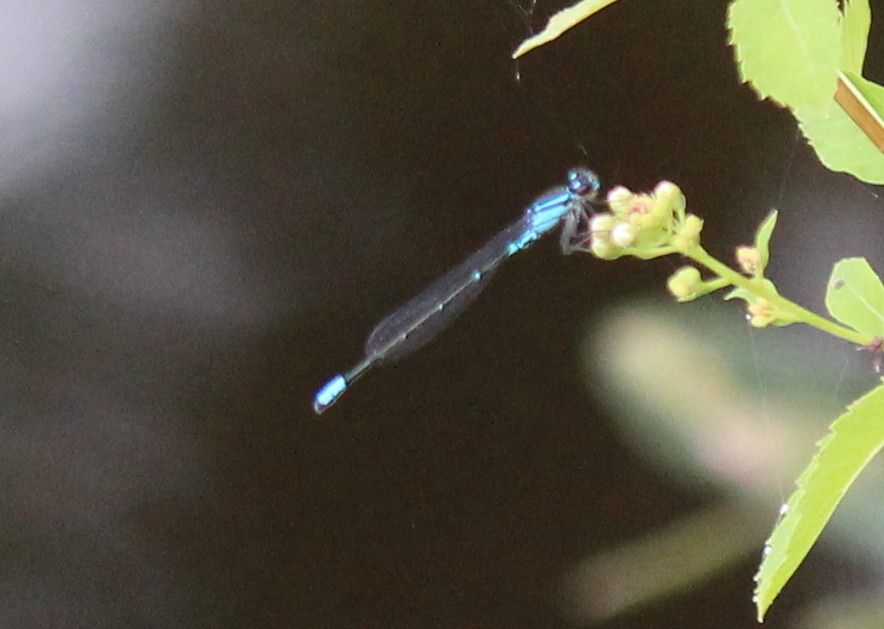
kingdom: Animalia
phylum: Arthropoda
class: Insecta
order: Odonata
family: Coenagrionidae
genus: Enallagma
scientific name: Enallagma geminatum
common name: Skimming bluet
